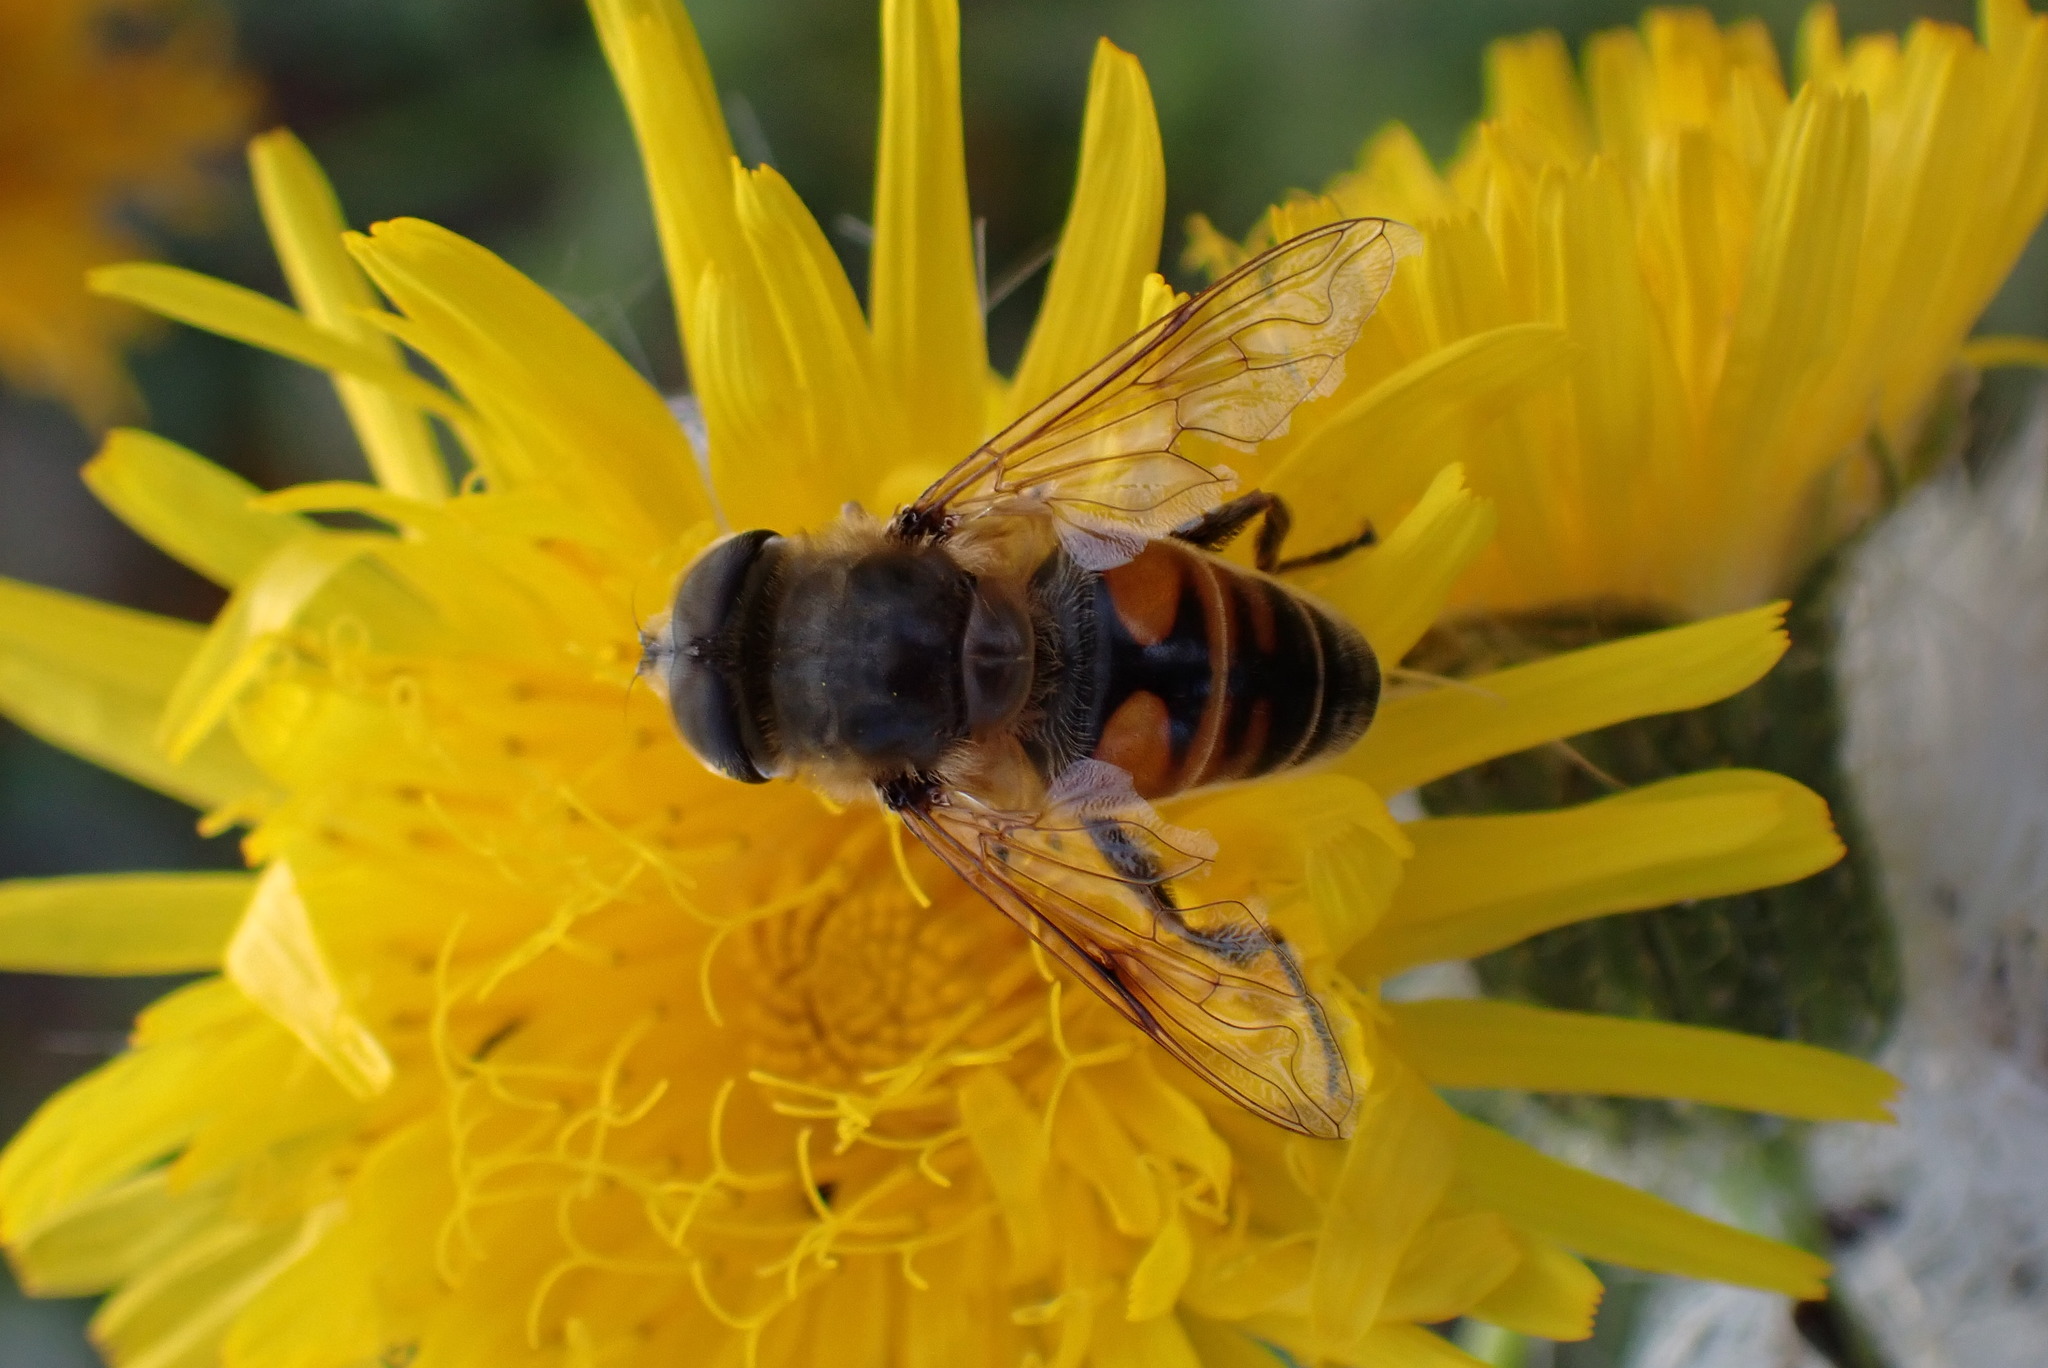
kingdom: Animalia
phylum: Arthropoda
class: Insecta
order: Diptera
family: Syrphidae
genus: Eristalis
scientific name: Eristalis tenax
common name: Drone fly
